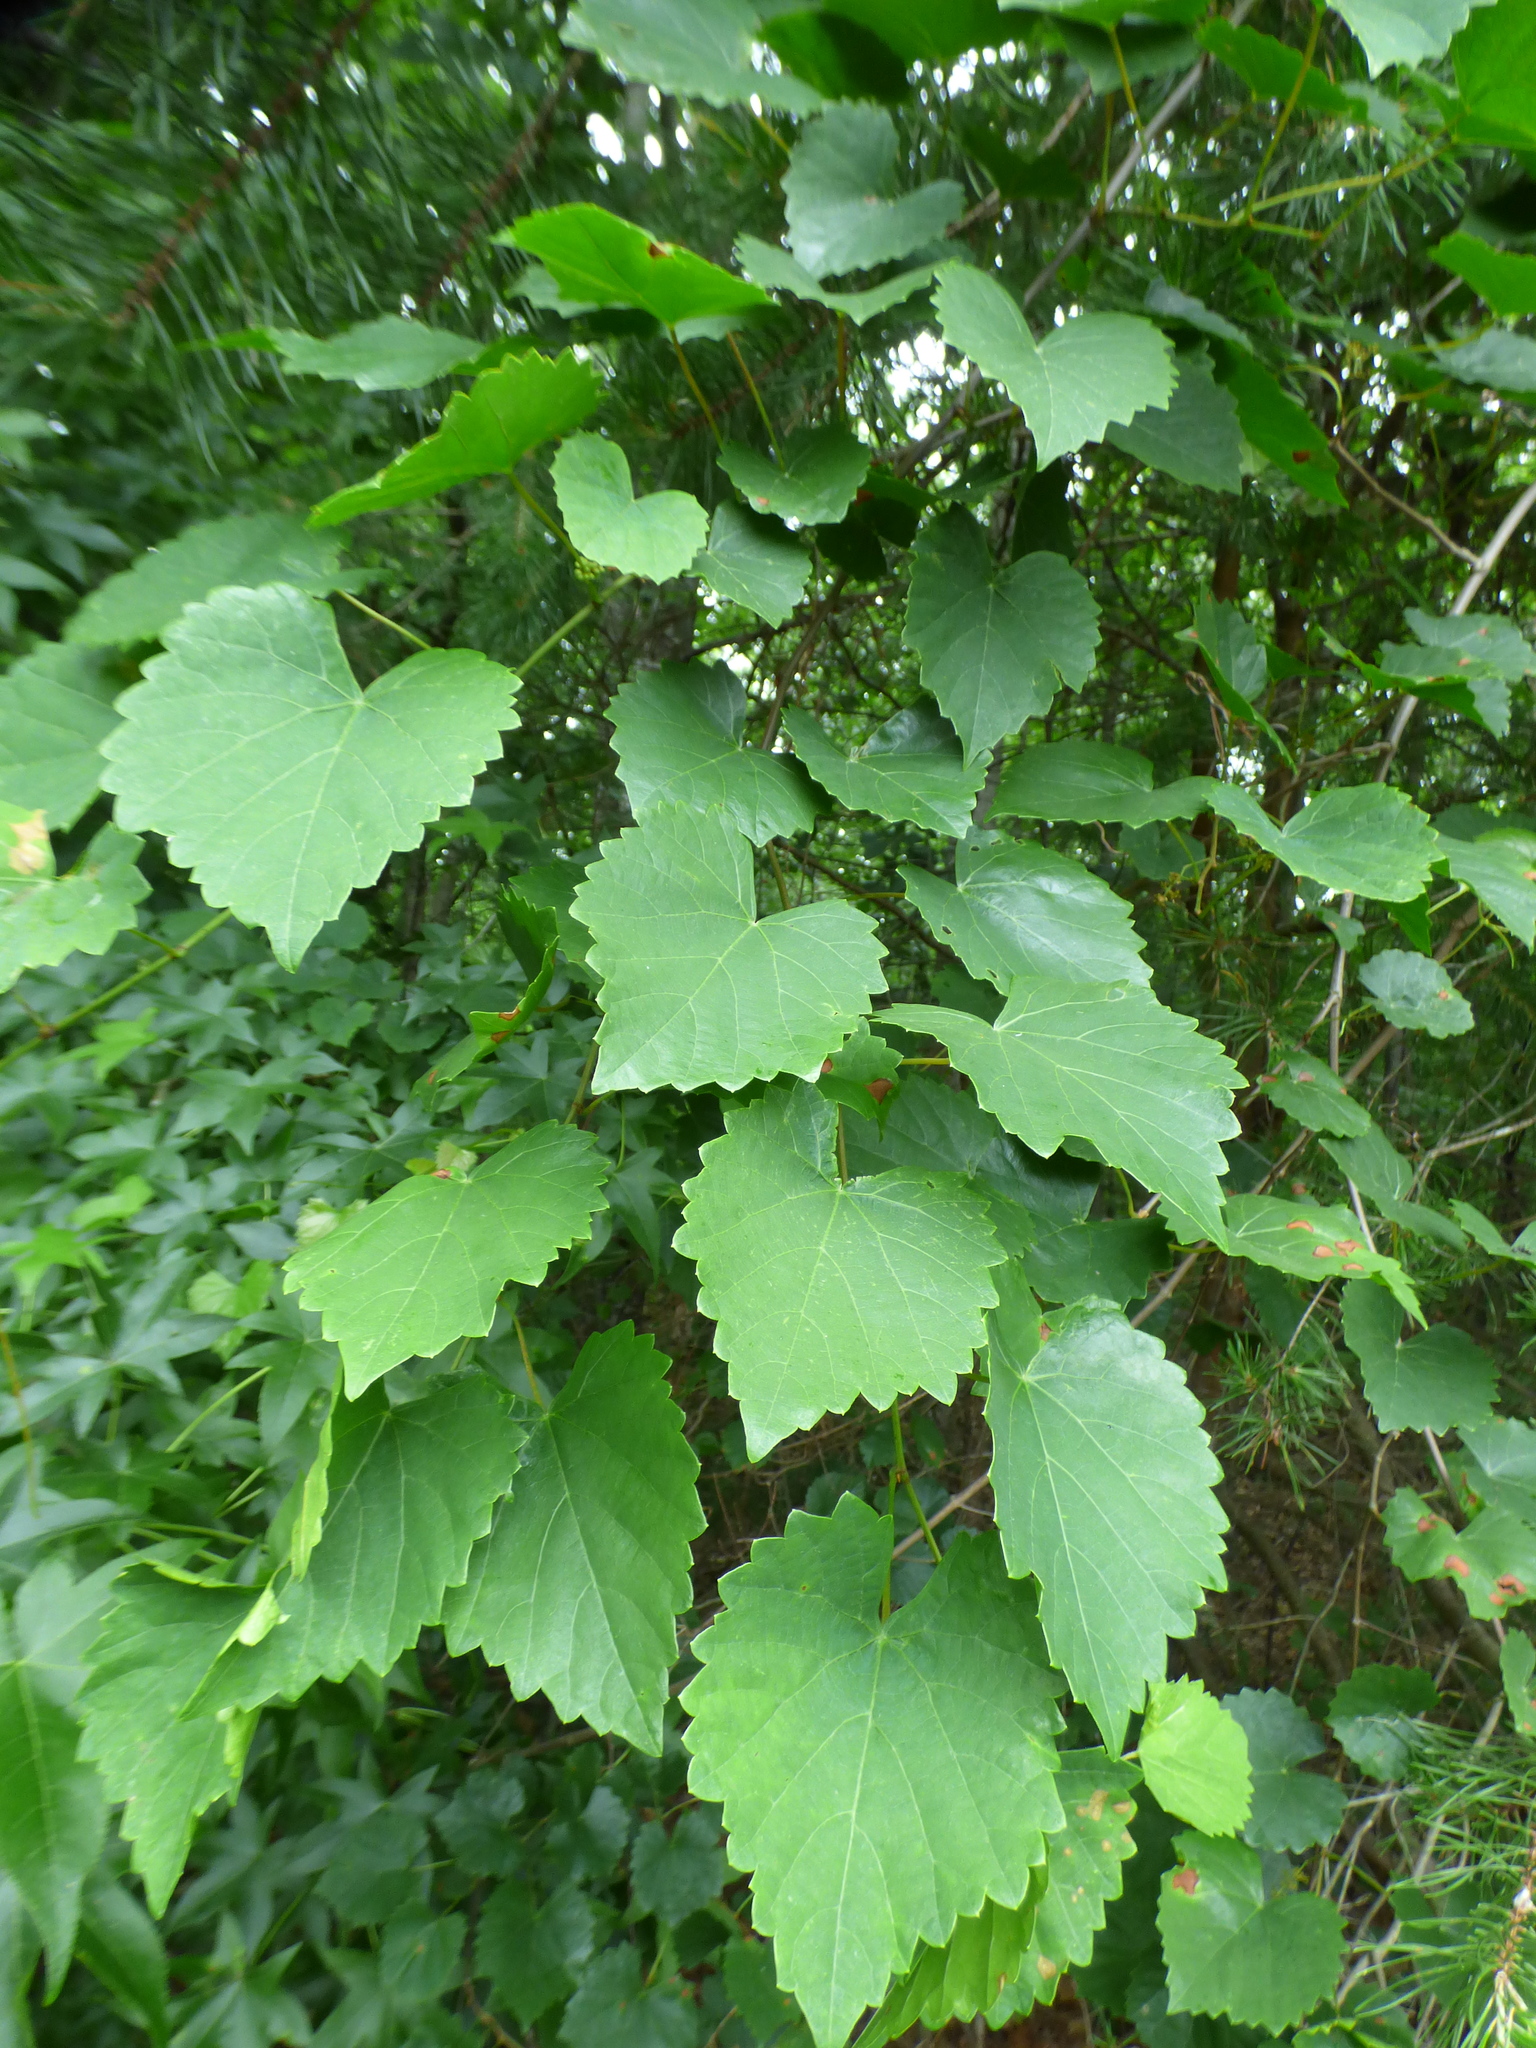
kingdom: Plantae
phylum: Tracheophyta
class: Magnoliopsida
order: Vitales
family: Vitaceae
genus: Vitis
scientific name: Vitis rotundifolia
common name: Muscadine grape
